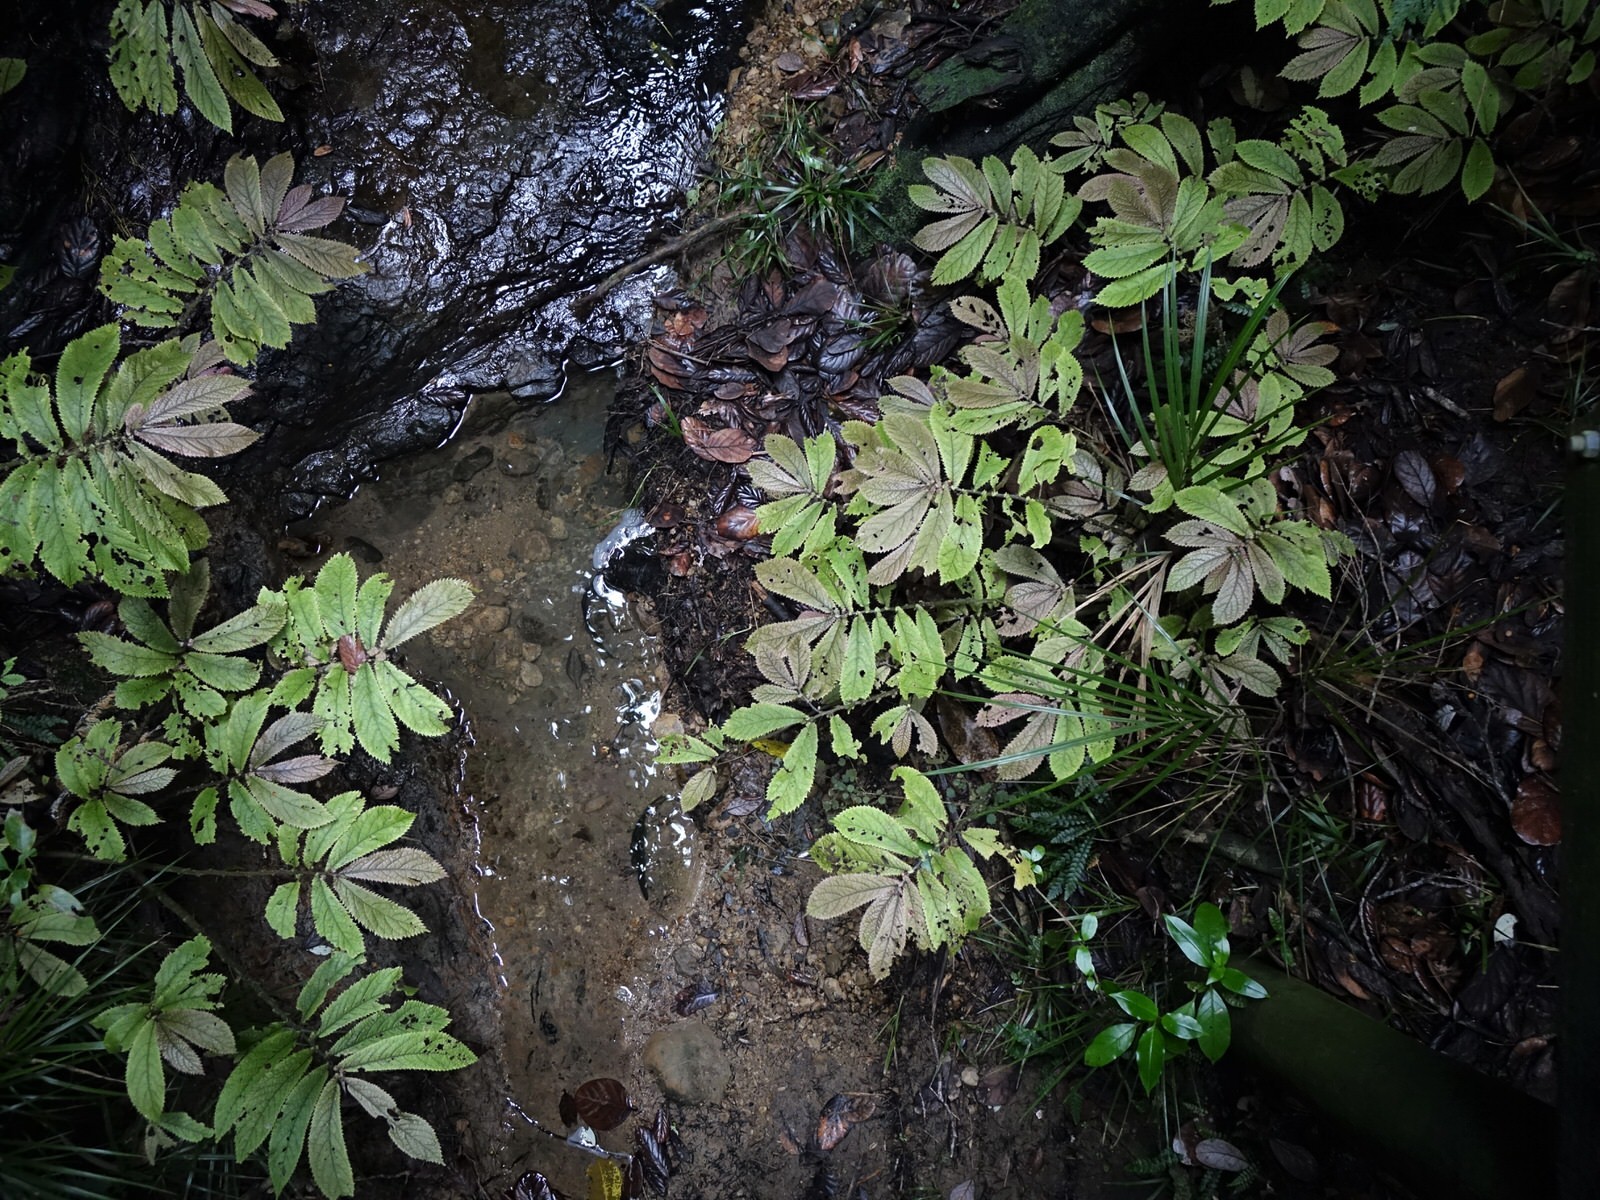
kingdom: Plantae
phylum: Tracheophyta
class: Magnoliopsida
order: Rosales
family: Urticaceae
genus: Elatostema
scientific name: Elatostema rugosum
